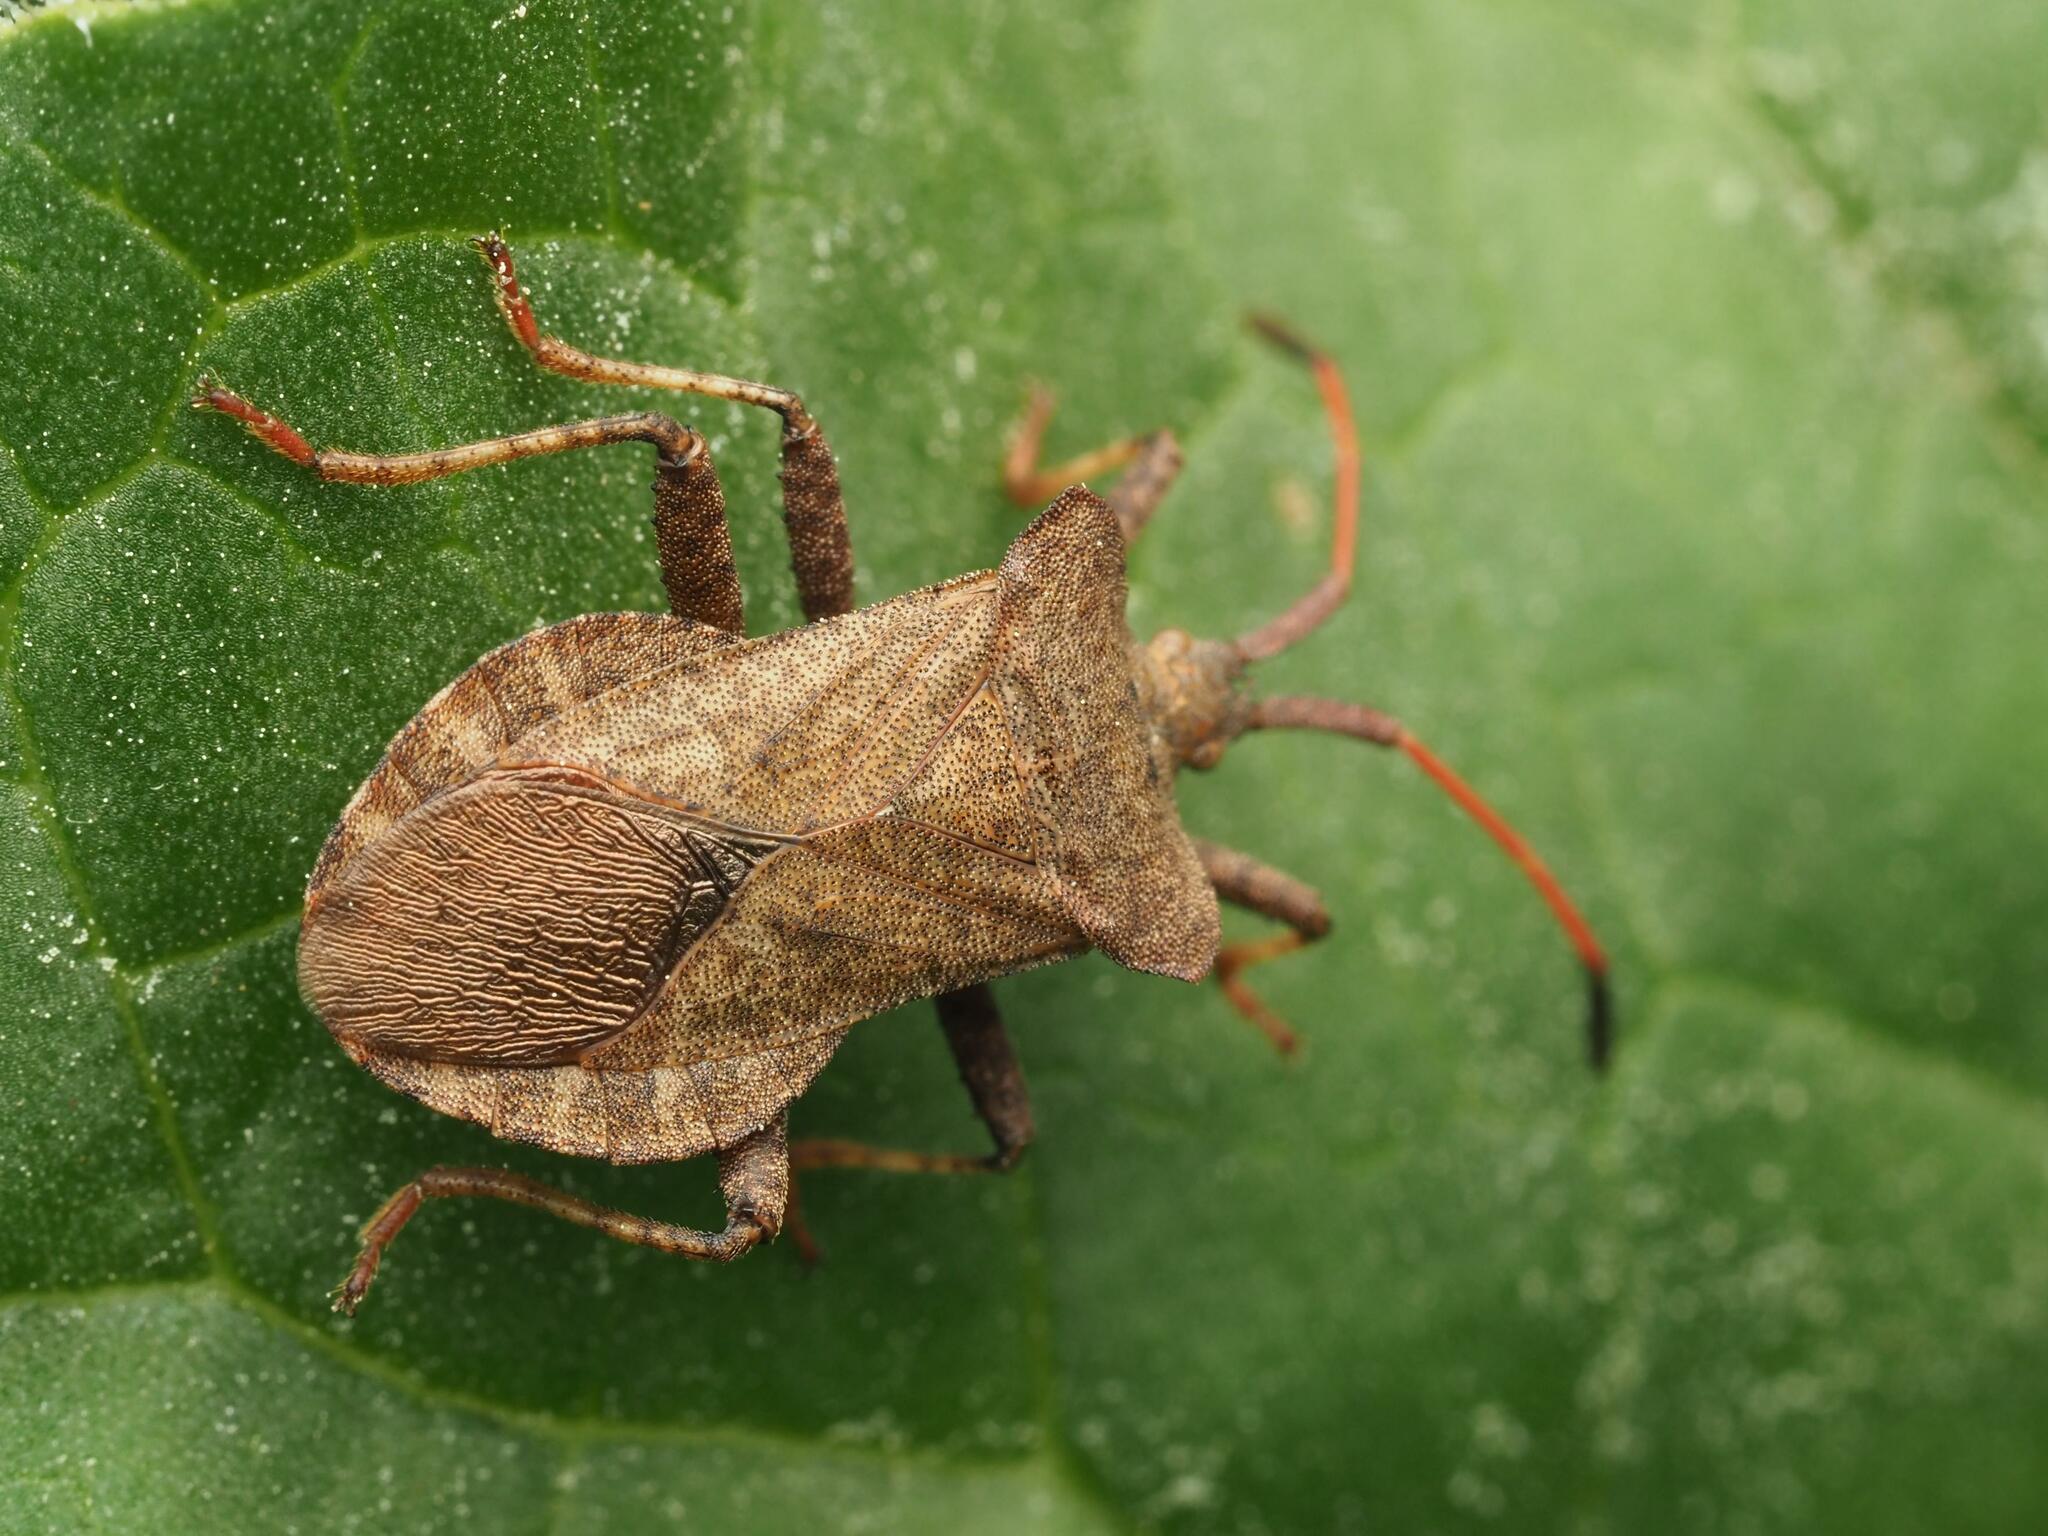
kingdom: Animalia
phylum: Arthropoda
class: Insecta
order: Hemiptera
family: Coreidae
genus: Coreus
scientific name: Coreus marginatus
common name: Dock bug
